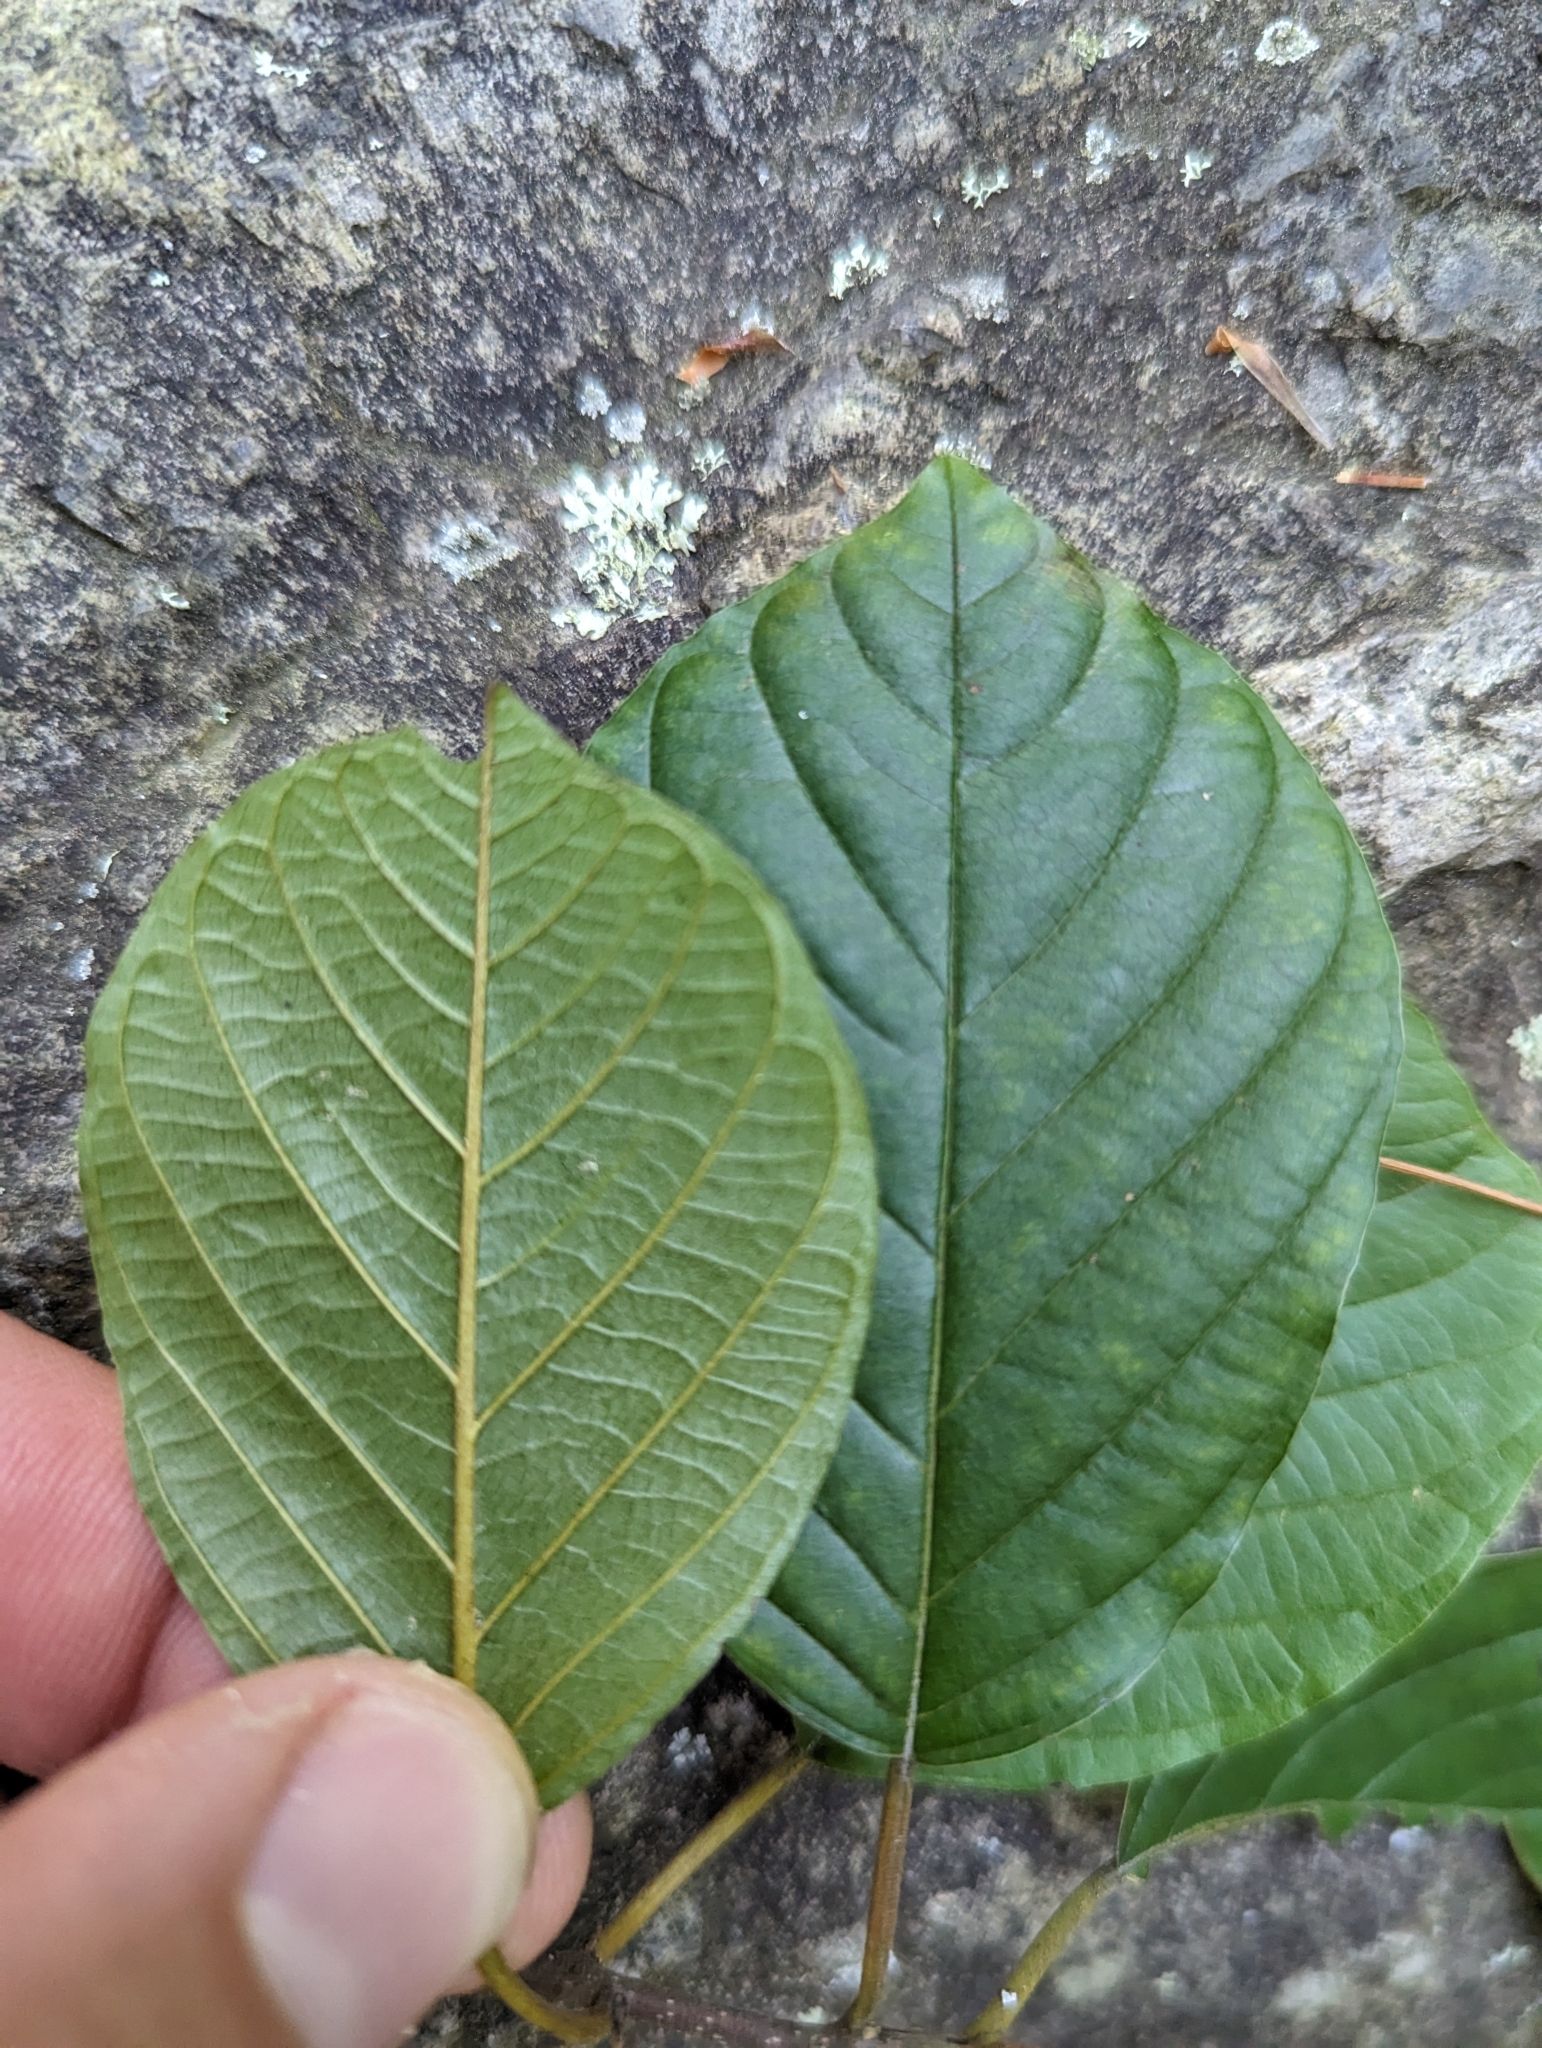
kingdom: Plantae
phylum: Tracheophyta
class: Magnoliopsida
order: Rosales
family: Rhamnaceae
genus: Frangula
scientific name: Frangula alnus
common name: Alder buckthorn
